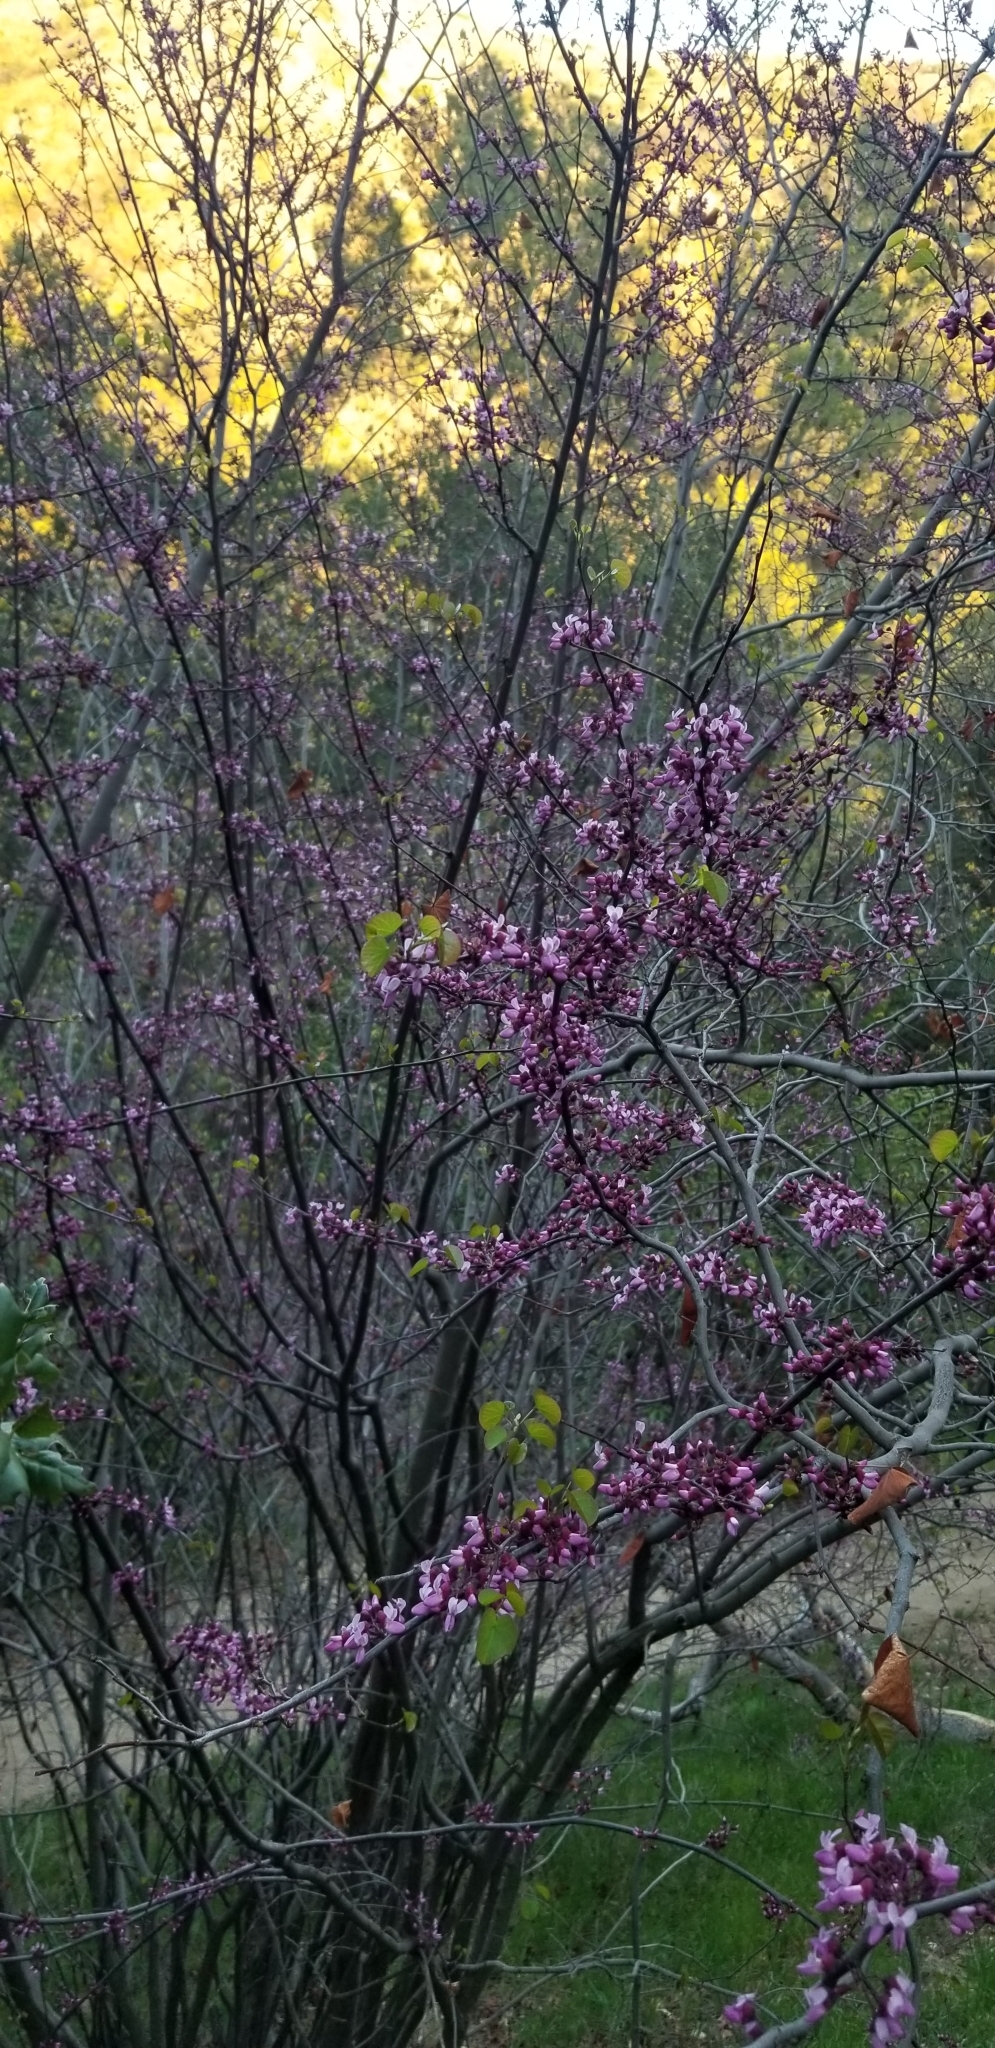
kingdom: Plantae
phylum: Tracheophyta
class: Magnoliopsida
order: Fabales
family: Fabaceae
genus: Cercis
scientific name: Cercis occidentalis
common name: California redbud
